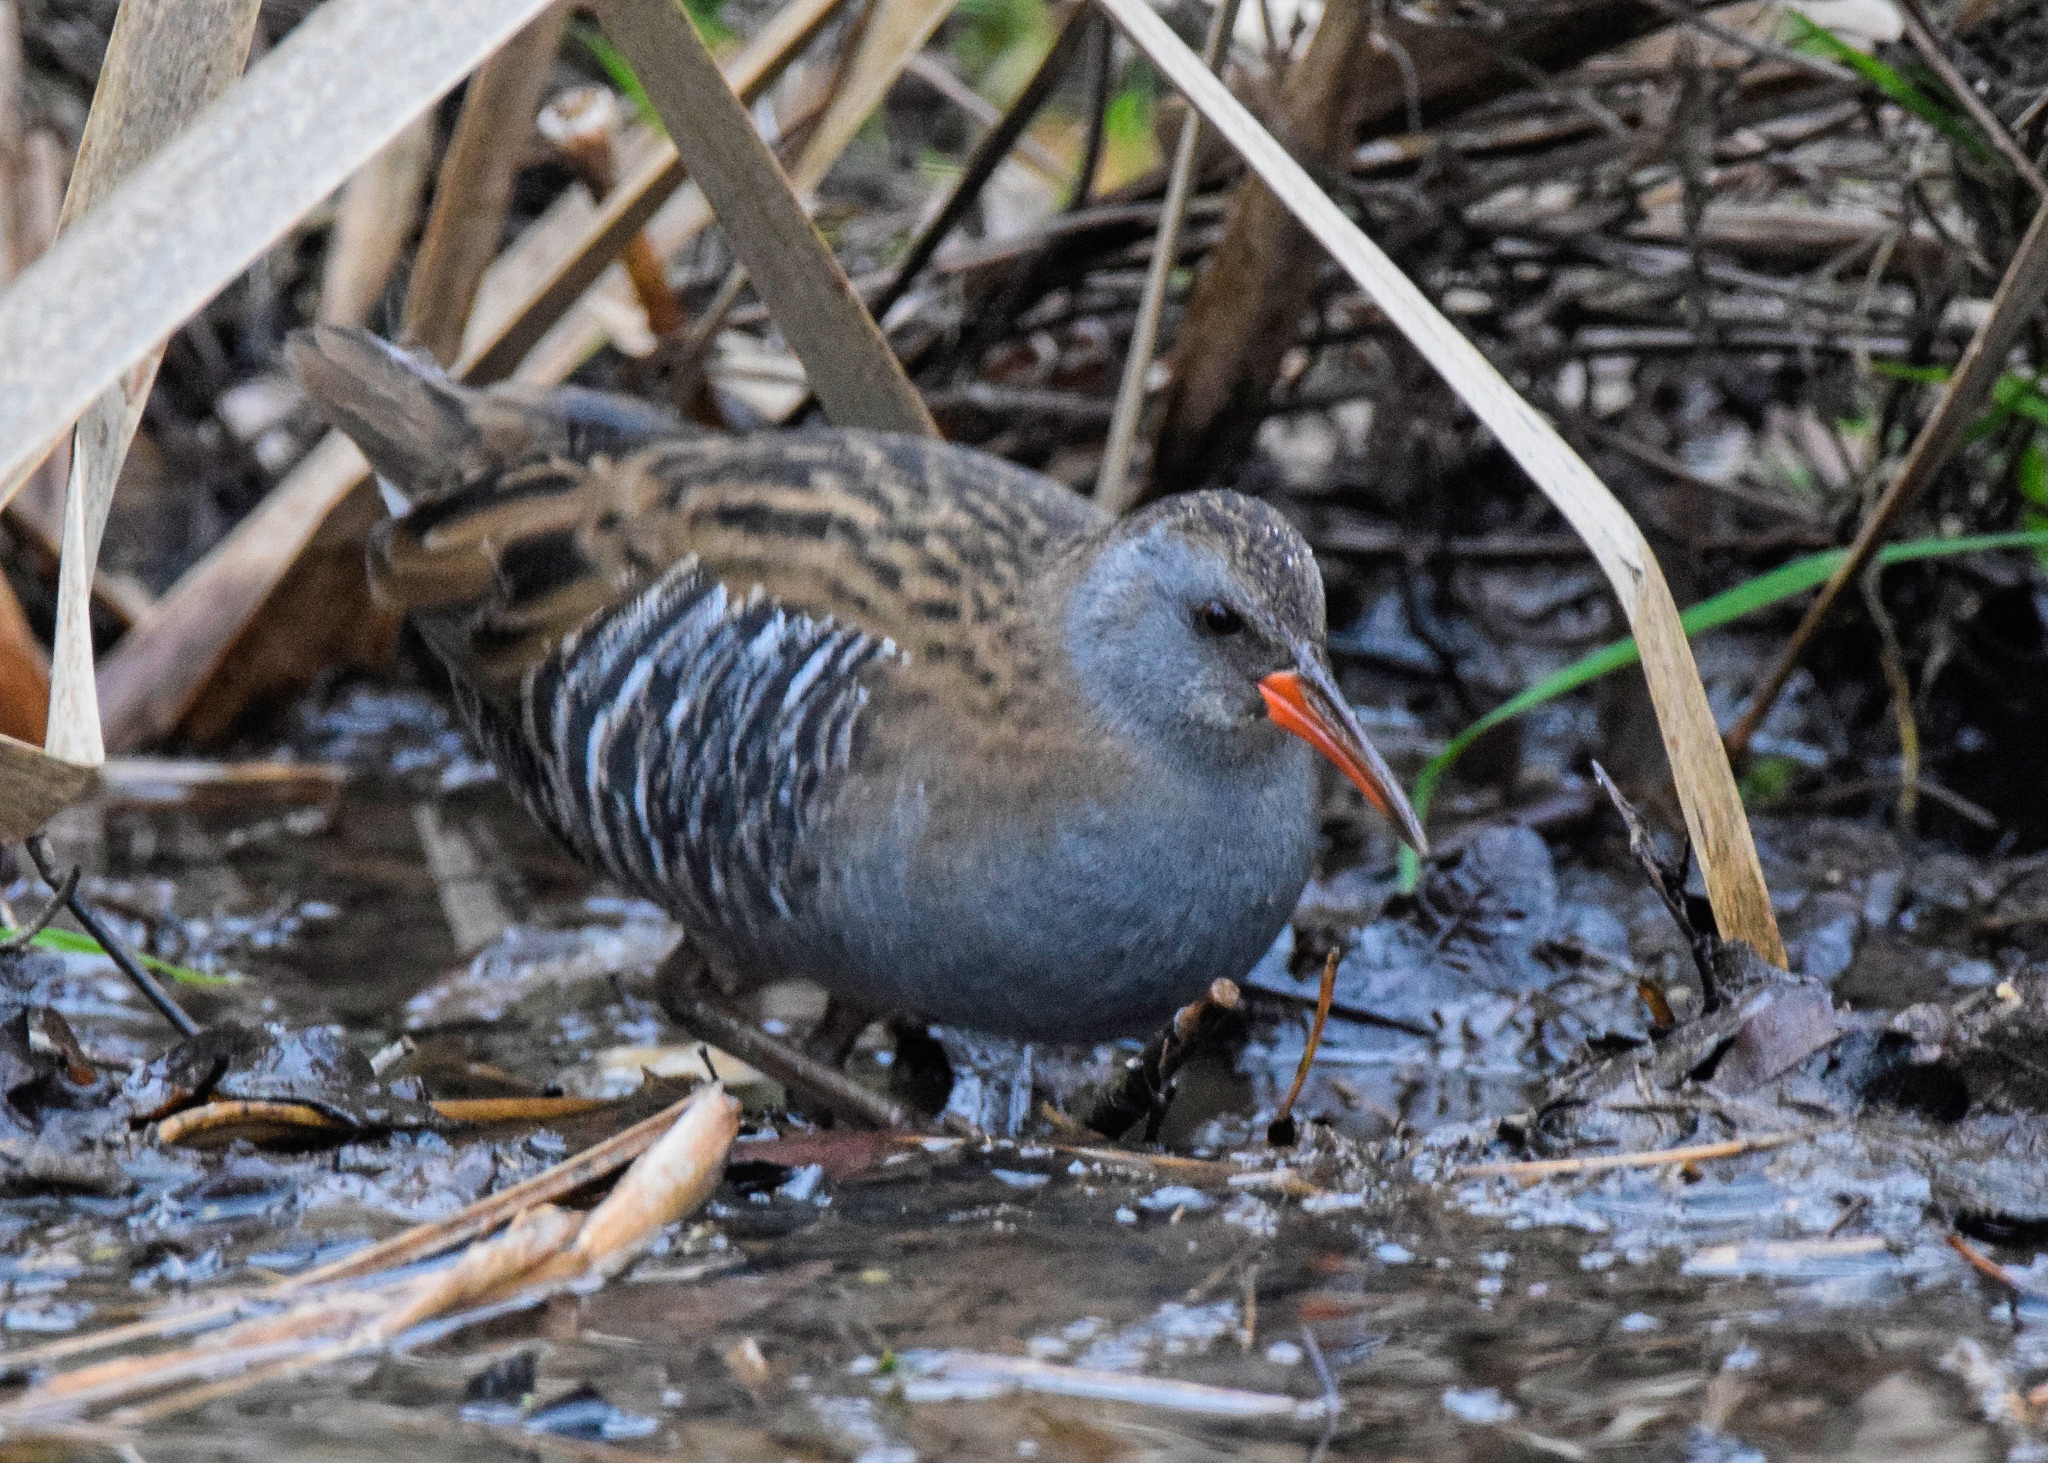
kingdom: Animalia
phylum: Chordata
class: Aves
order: Gruiformes
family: Rallidae
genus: Rallus
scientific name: Rallus aquaticus
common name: Water rail
